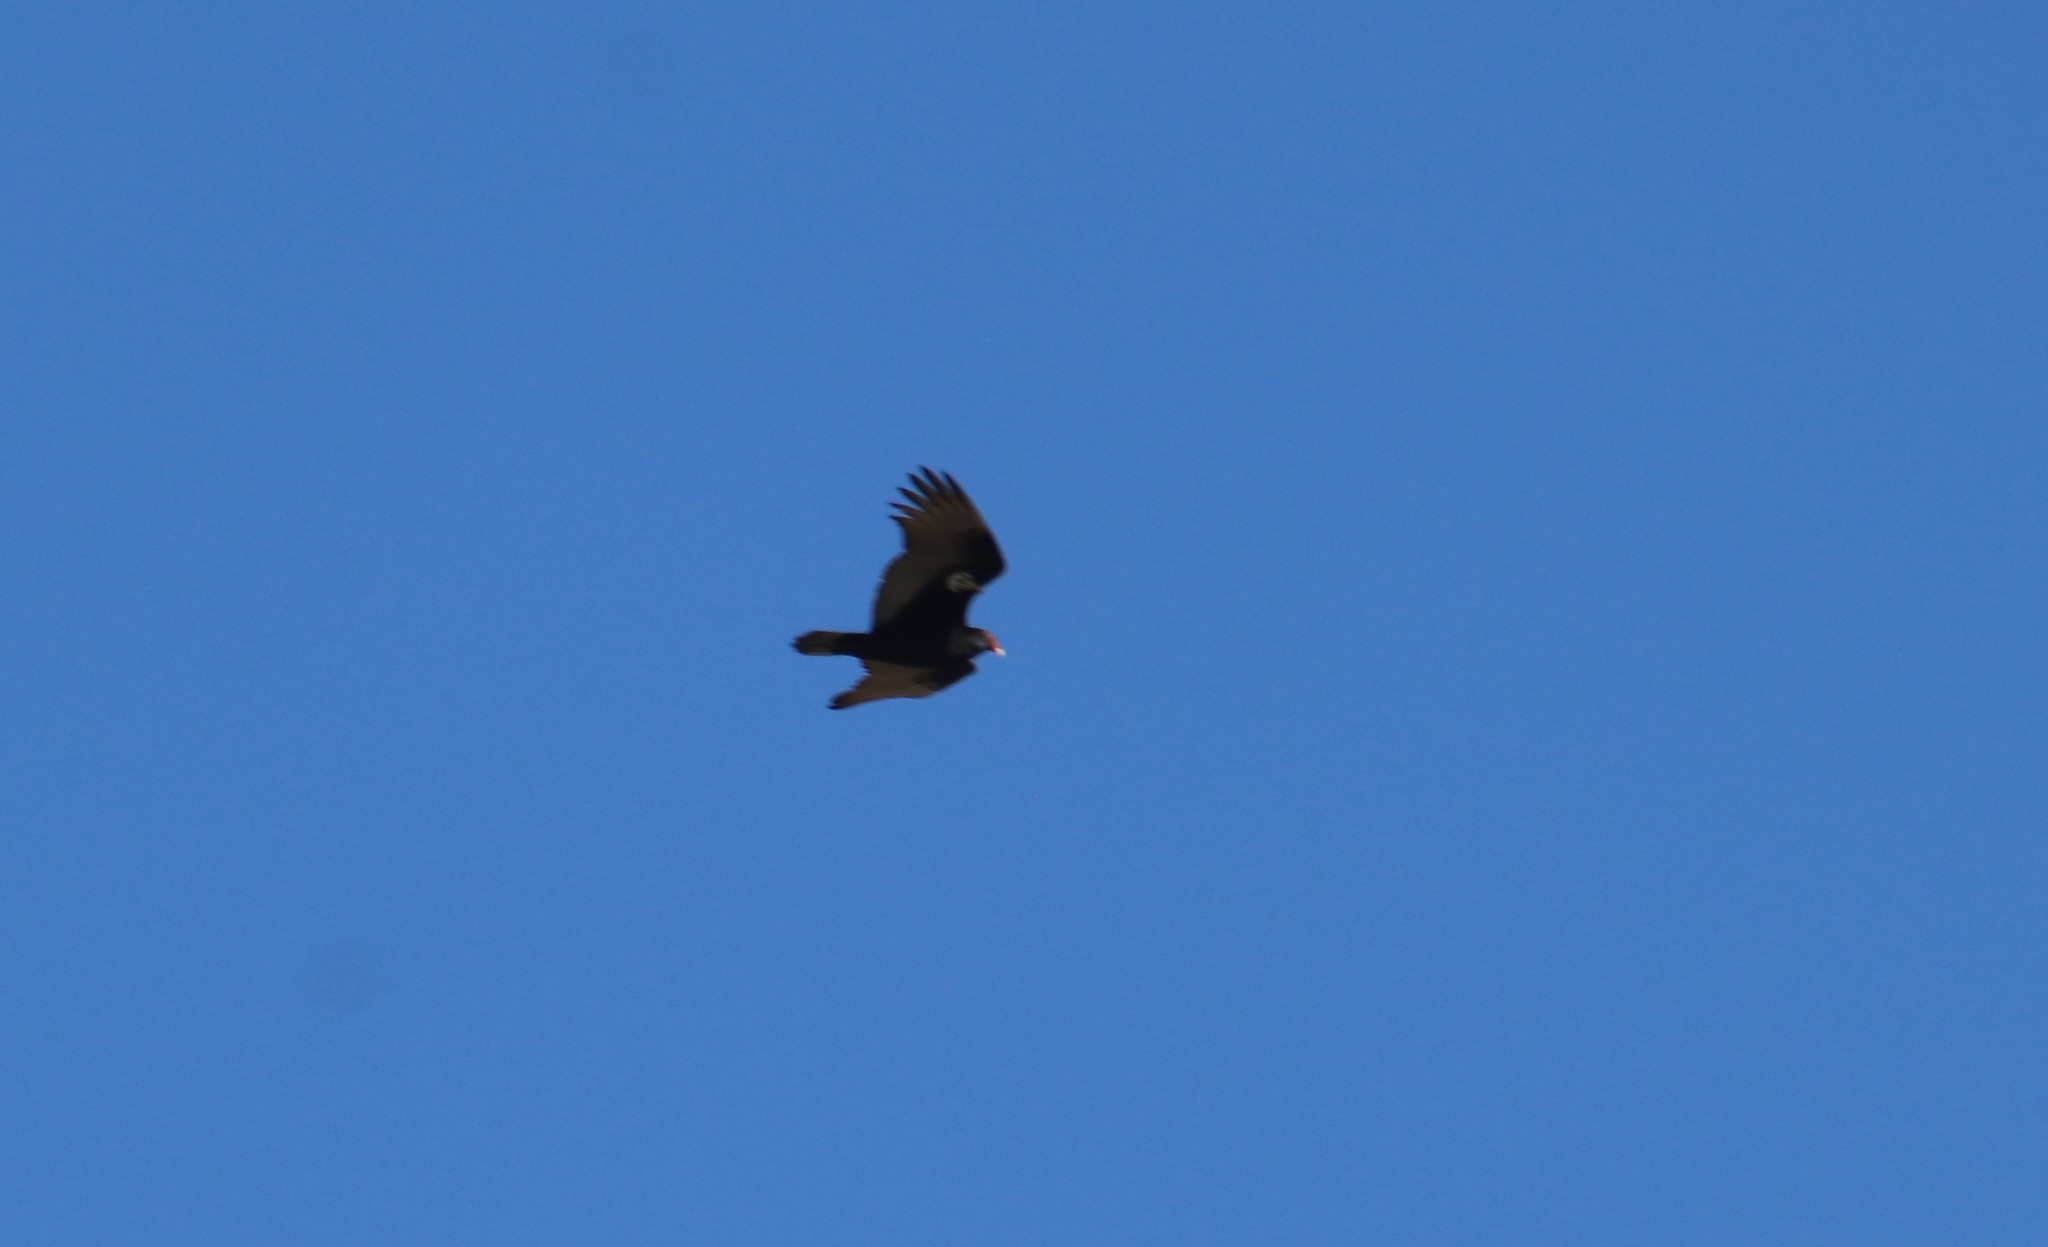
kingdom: Animalia
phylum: Chordata
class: Aves
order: Accipitriformes
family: Cathartidae
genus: Cathartes
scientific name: Cathartes aura
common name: Turkey vulture
